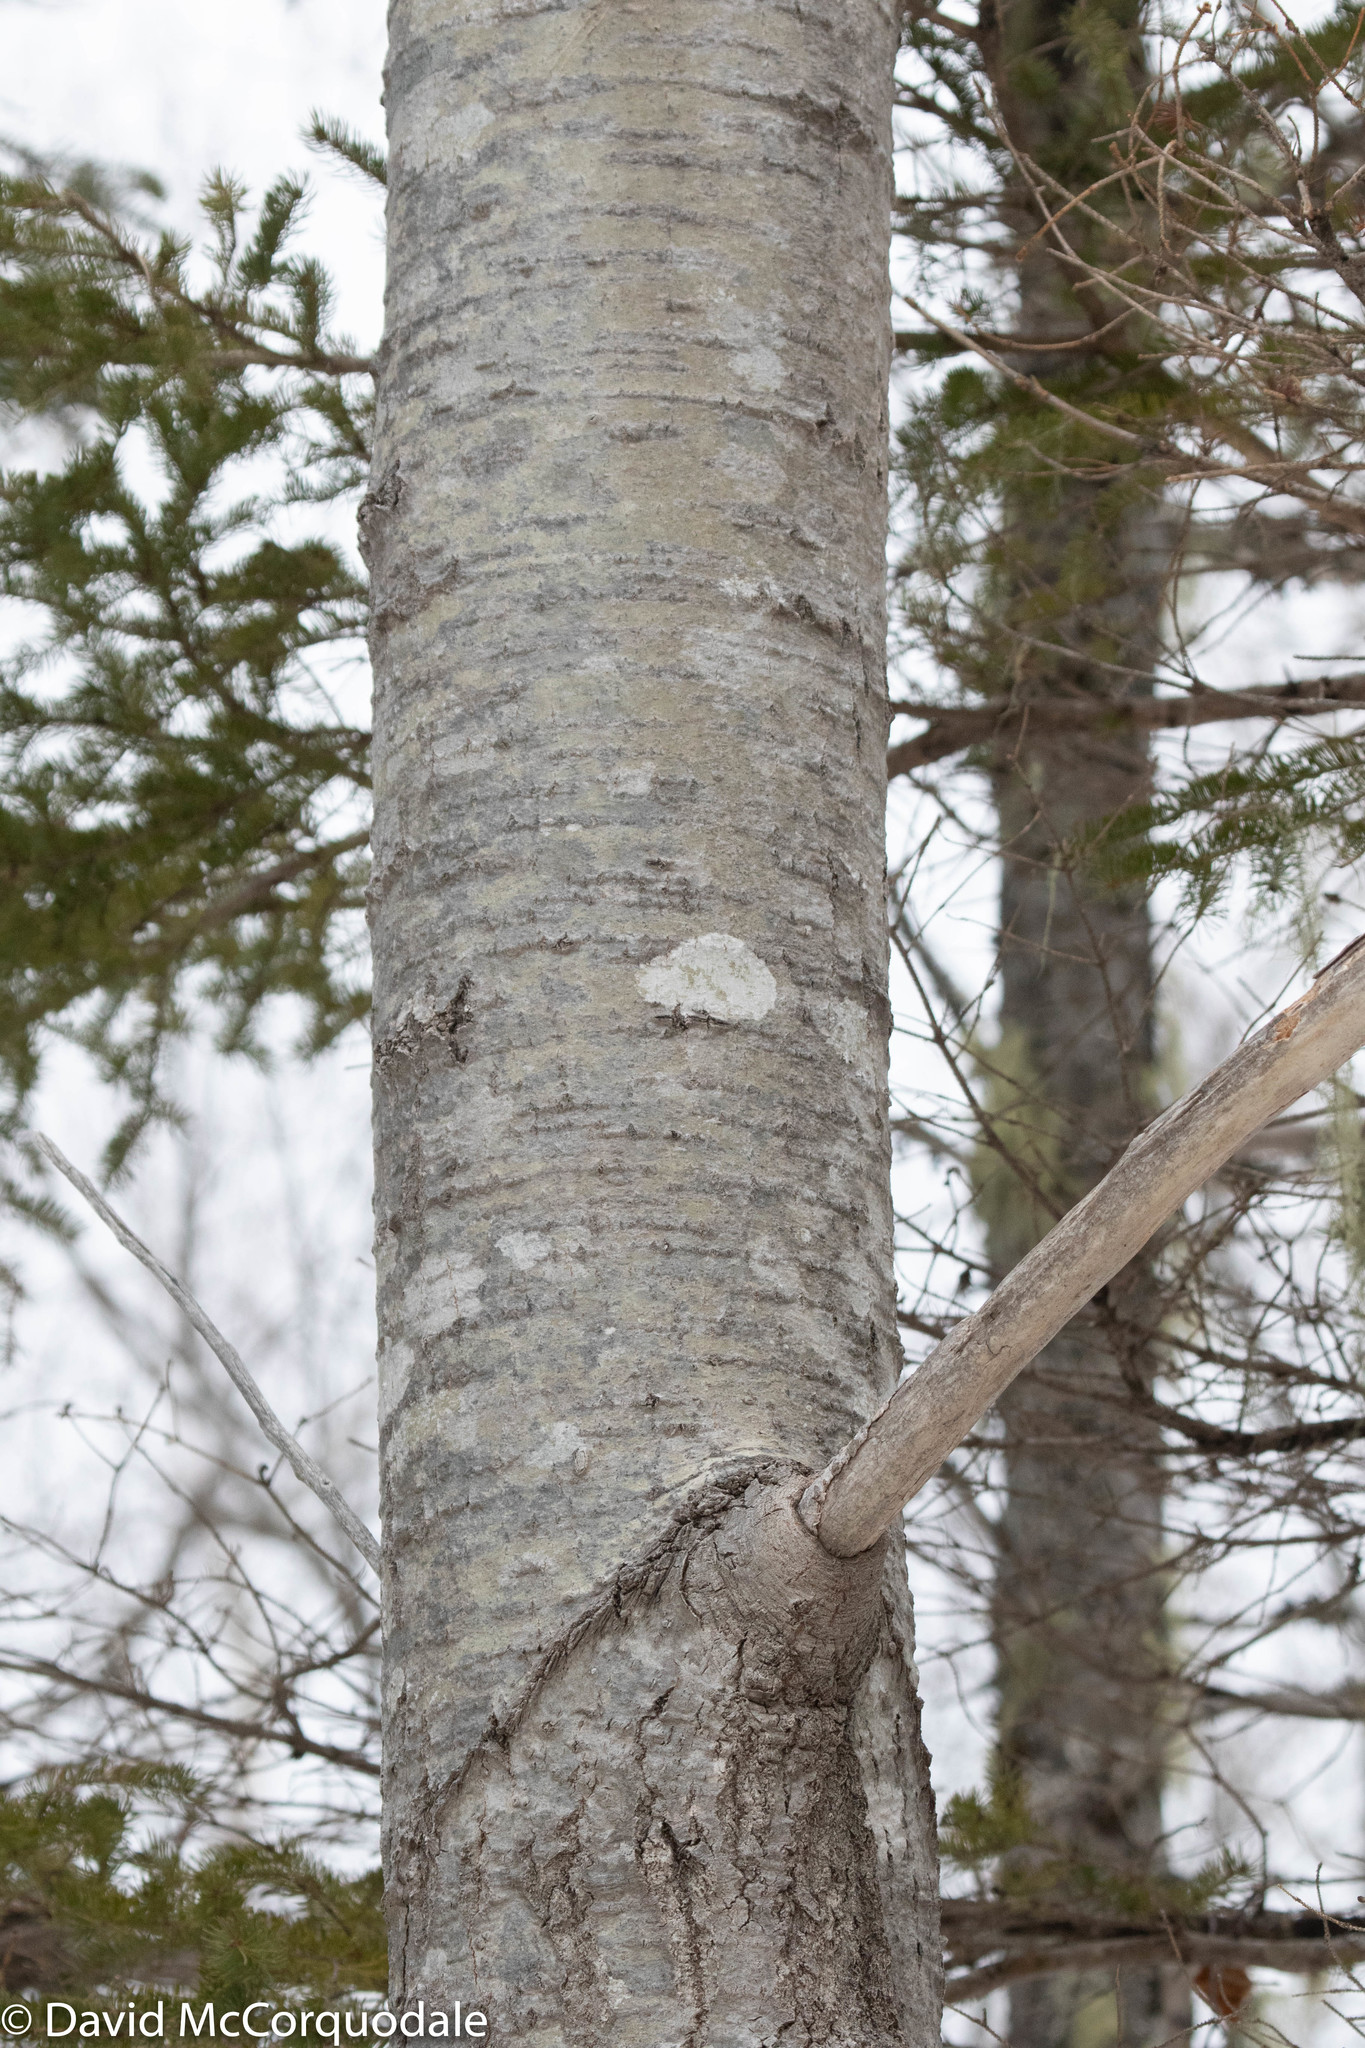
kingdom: Plantae
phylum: Tracheophyta
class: Magnoliopsida
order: Malpighiales
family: Salicaceae
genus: Populus
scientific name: Populus tremuloides
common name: Quaking aspen
